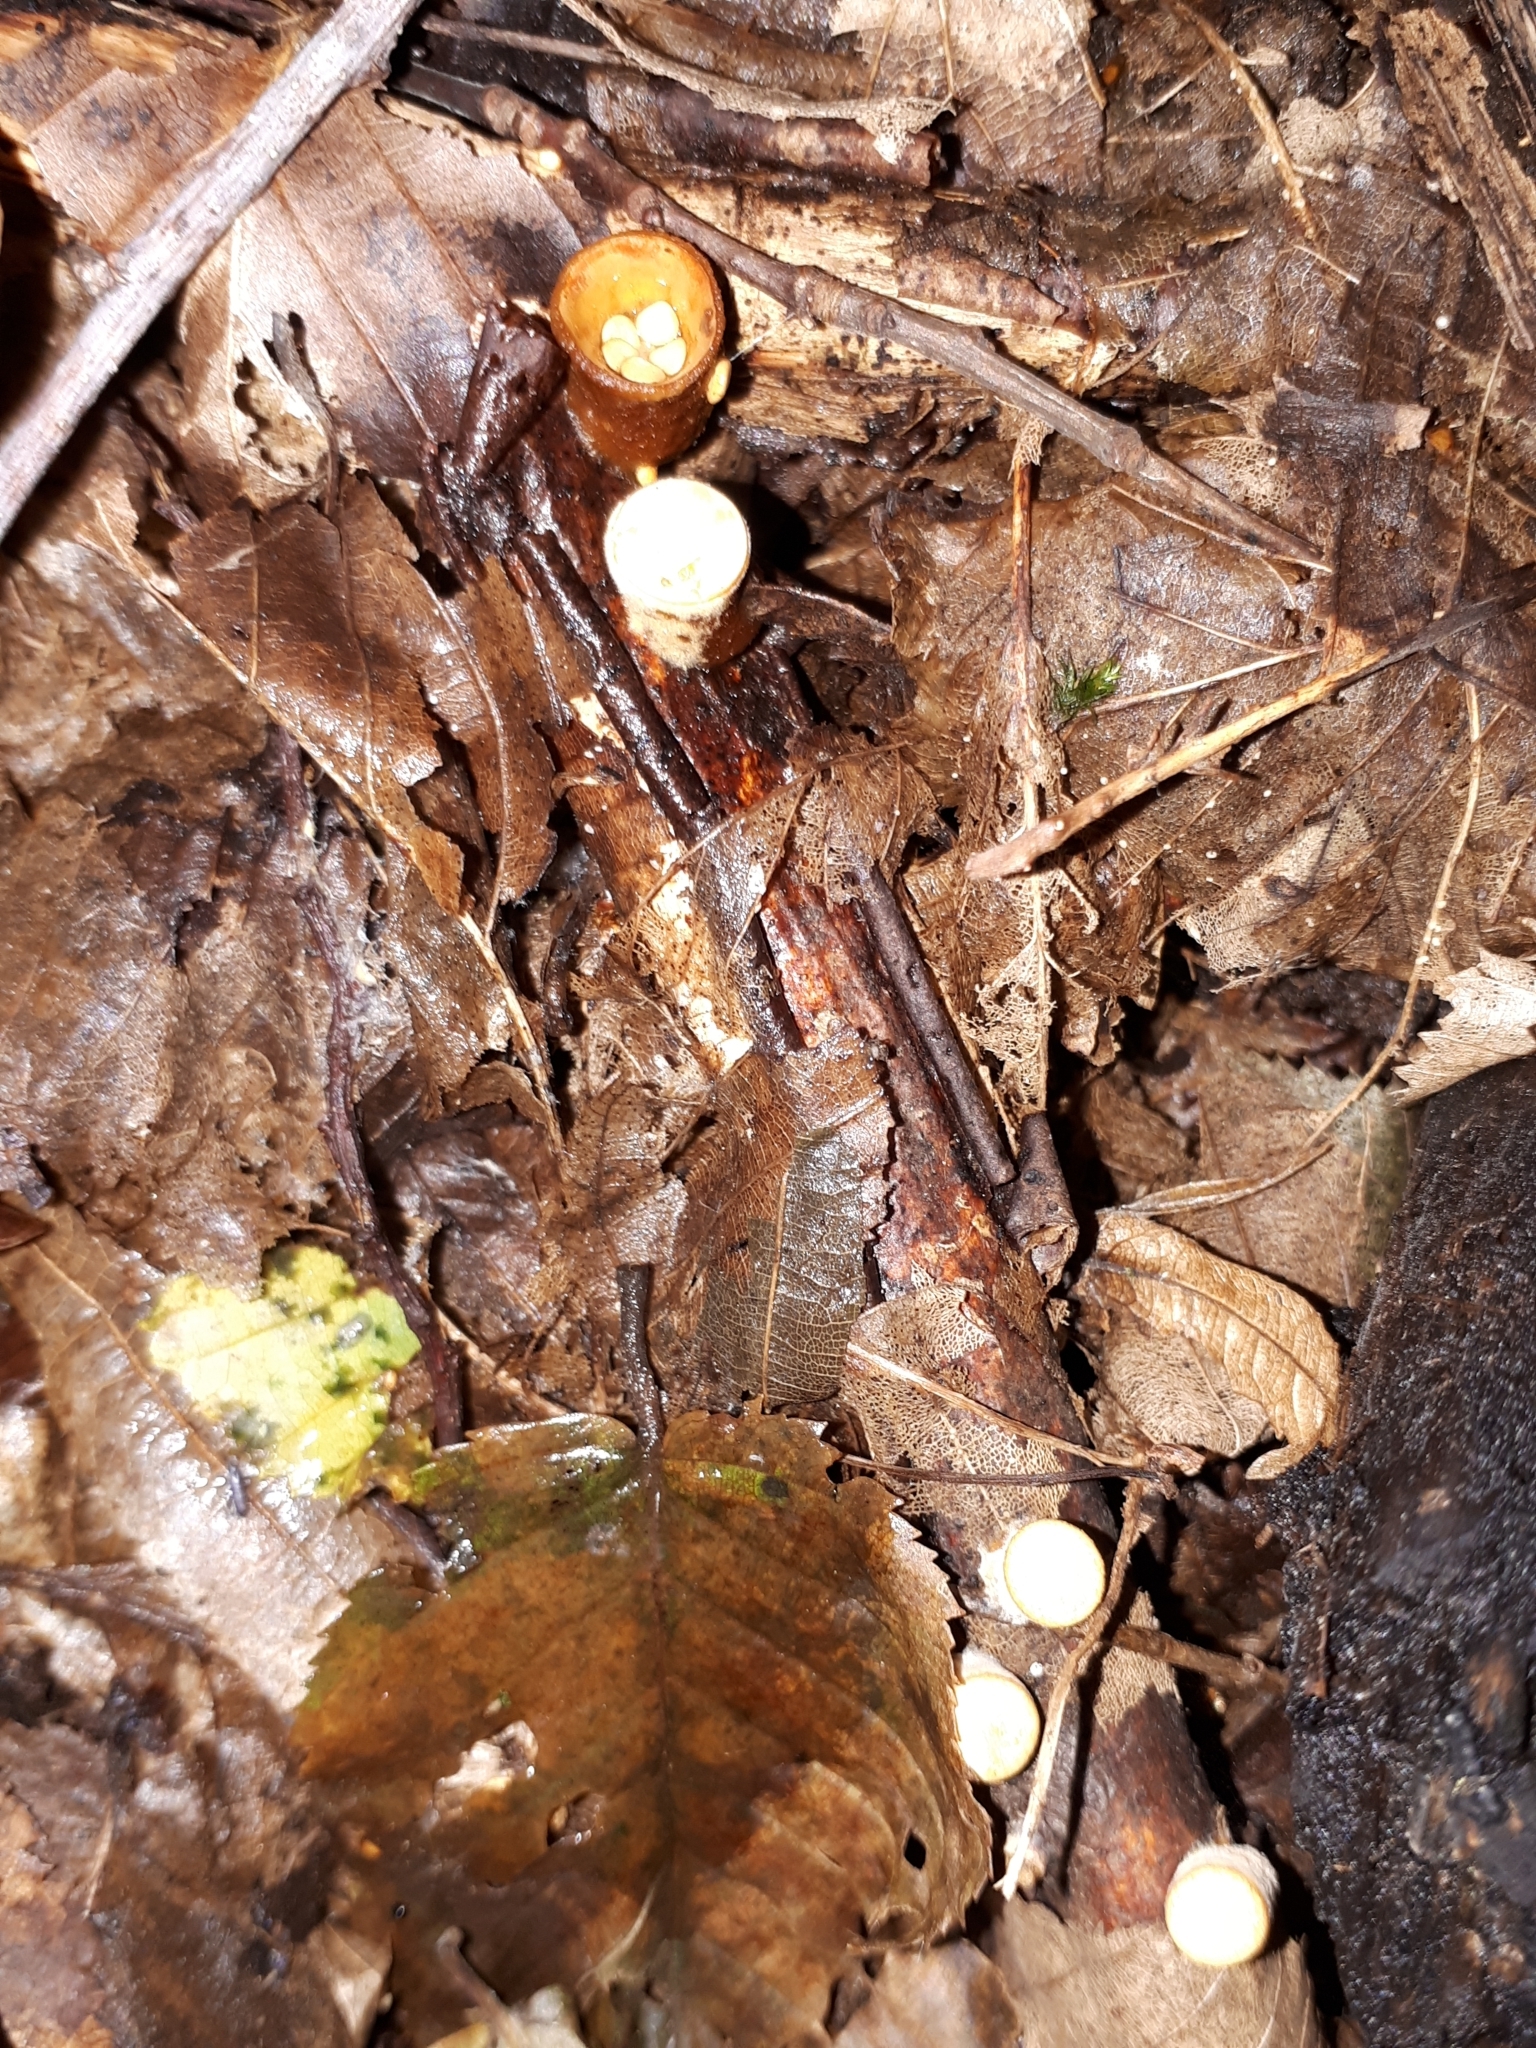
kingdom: Fungi
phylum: Basidiomycota
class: Agaricomycetes
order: Agaricales
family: Nidulariaceae
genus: Crucibulum
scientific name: Crucibulum laeve
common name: Common bird's nest
